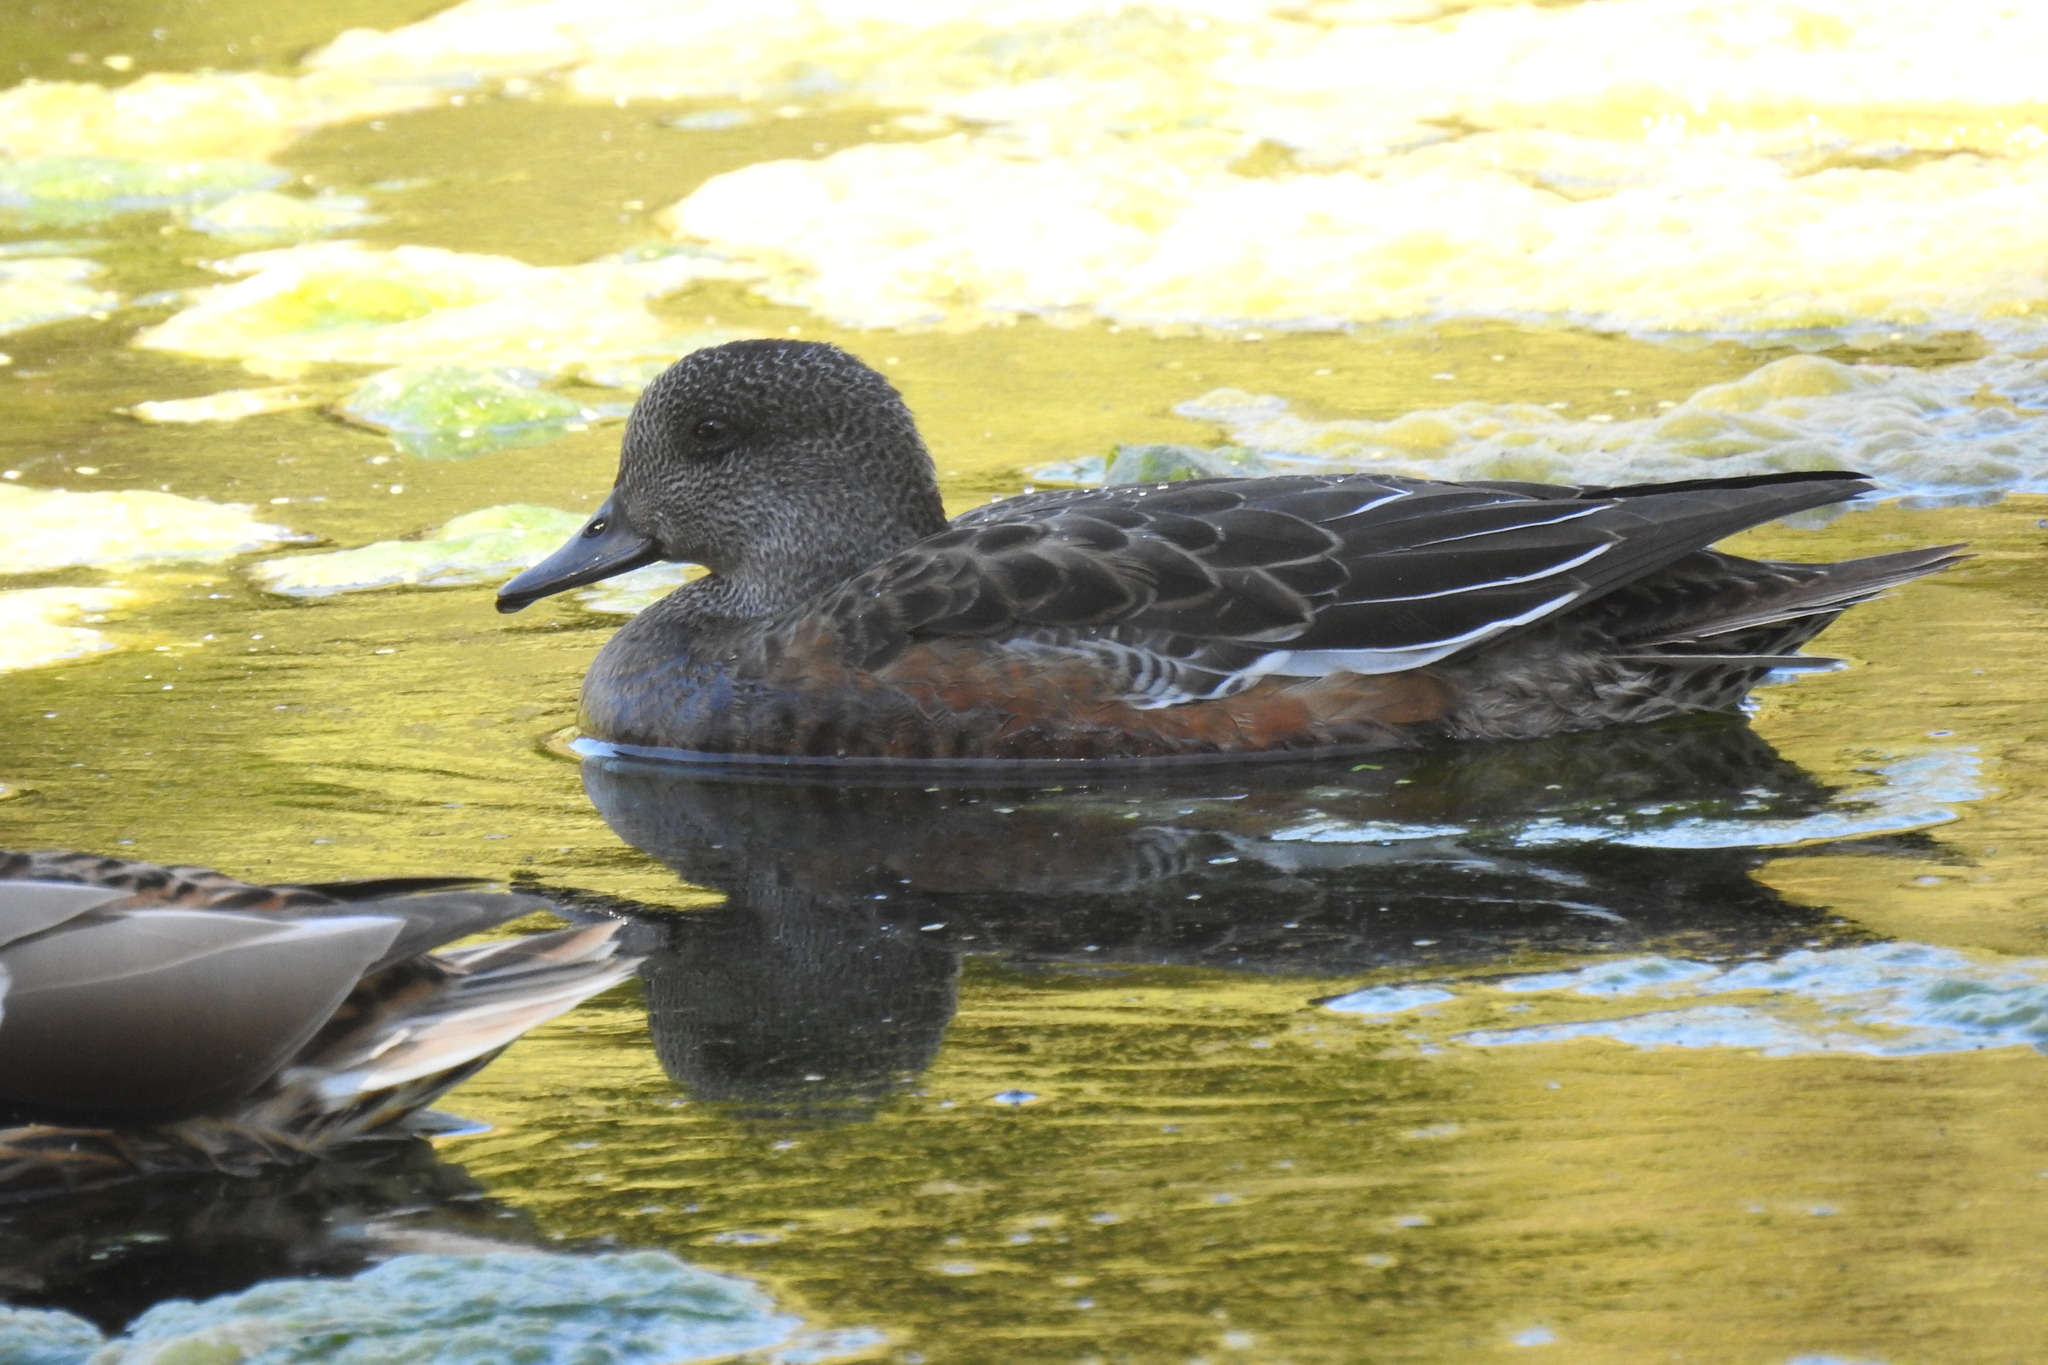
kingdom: Animalia
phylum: Chordata
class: Aves
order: Anseriformes
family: Anatidae
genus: Mareca
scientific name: Mareca americana
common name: American wigeon
